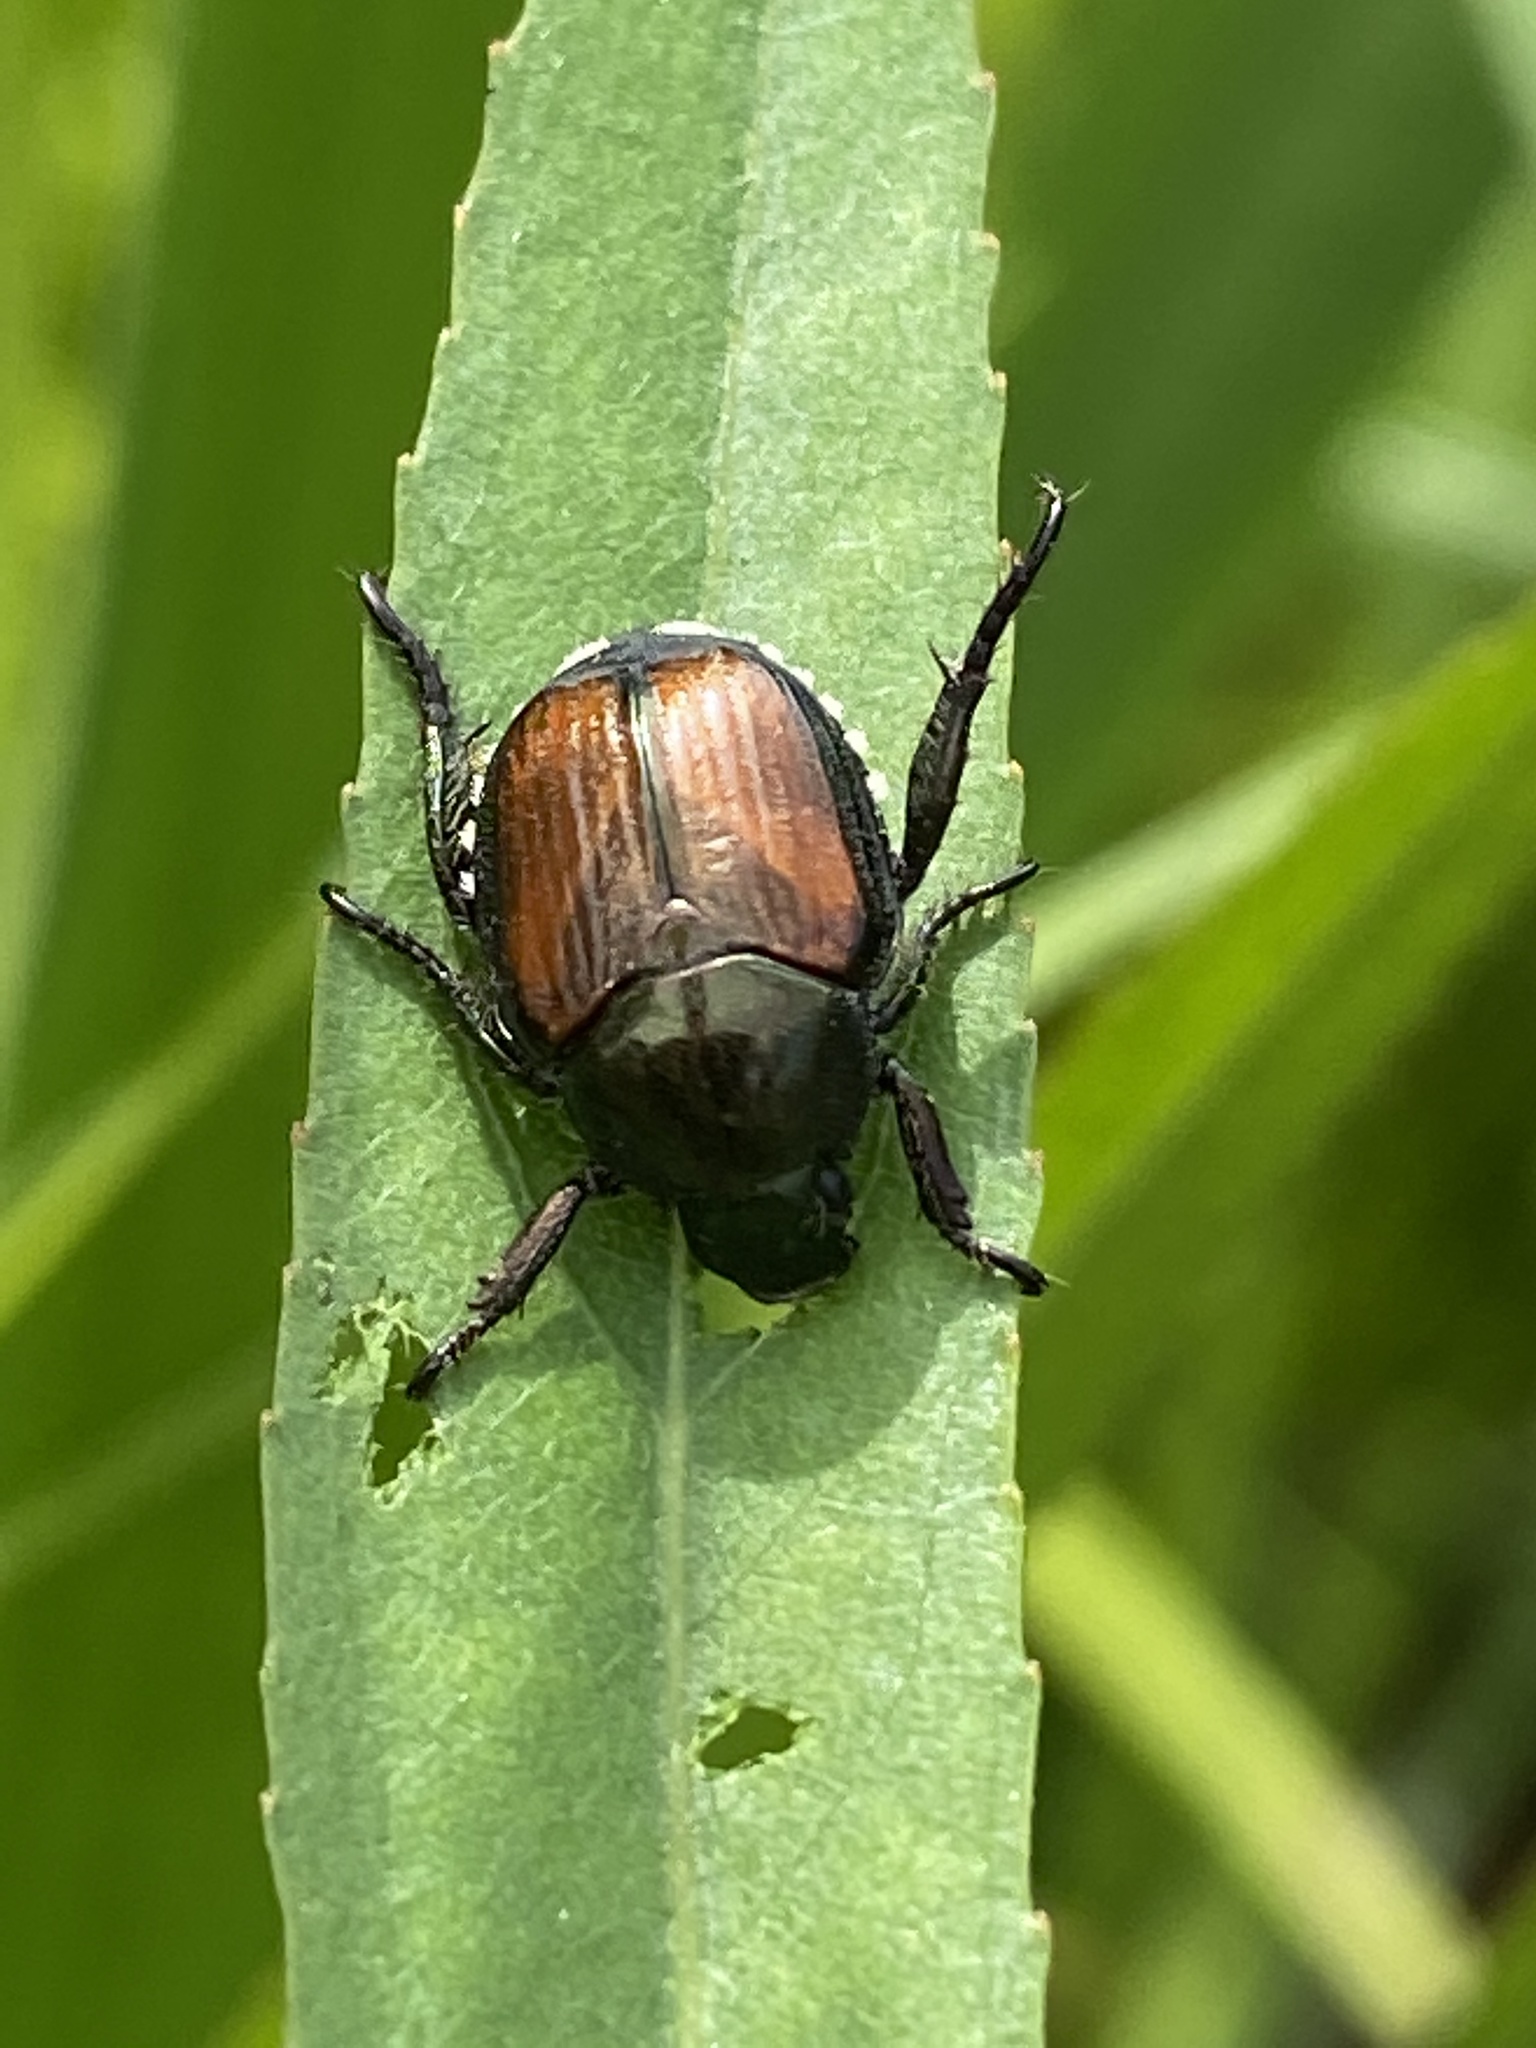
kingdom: Animalia
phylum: Arthropoda
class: Insecta
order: Coleoptera
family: Scarabaeidae
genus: Popillia
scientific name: Popillia japonica
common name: Japanese beetle
